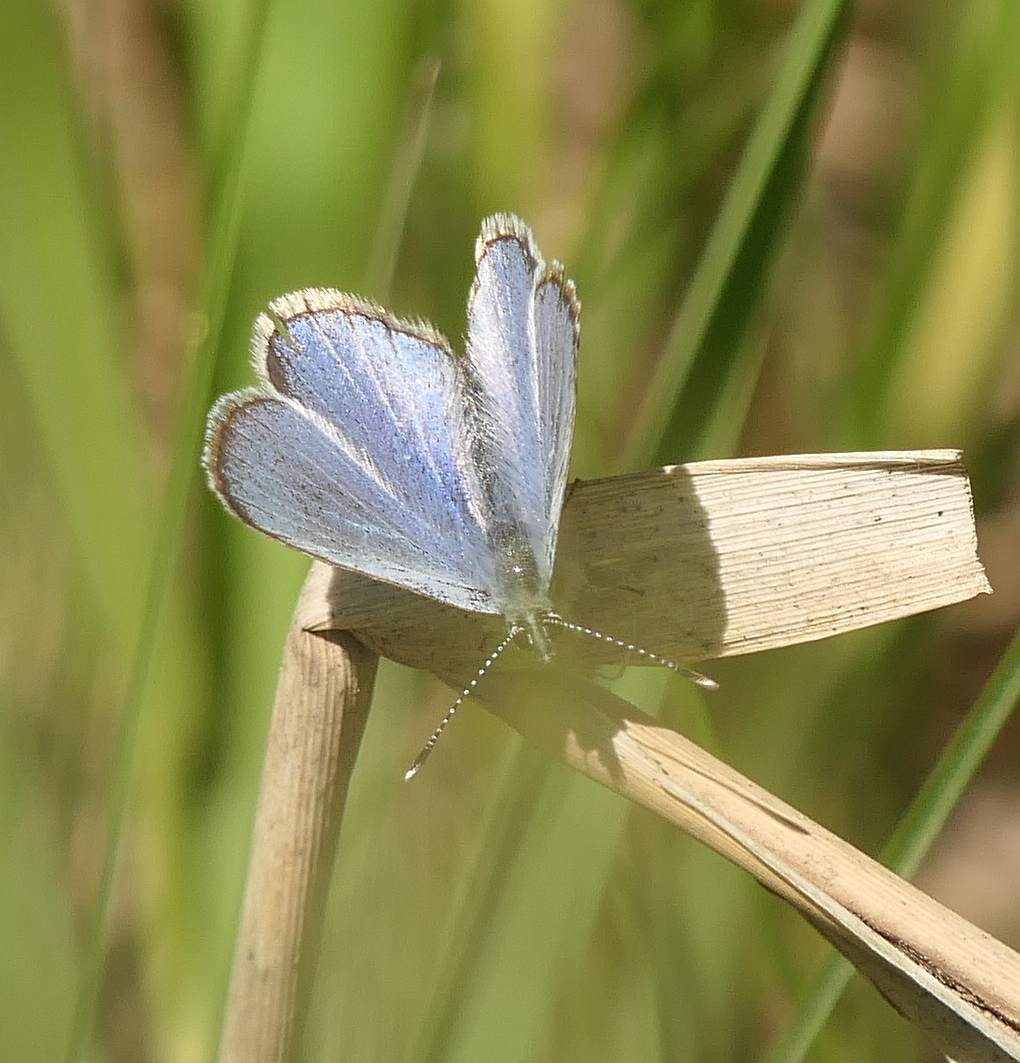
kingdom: Animalia
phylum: Arthropoda
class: Insecta
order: Lepidoptera
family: Lycaenidae
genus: Glaucopsyche
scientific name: Glaucopsyche lygdamus
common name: Silvery blue
